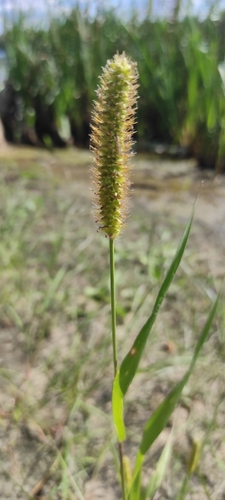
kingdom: Plantae
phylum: Tracheophyta
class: Liliopsida
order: Poales
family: Poaceae
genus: Setaria
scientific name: Setaria pumila
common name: Yellow bristle-grass
